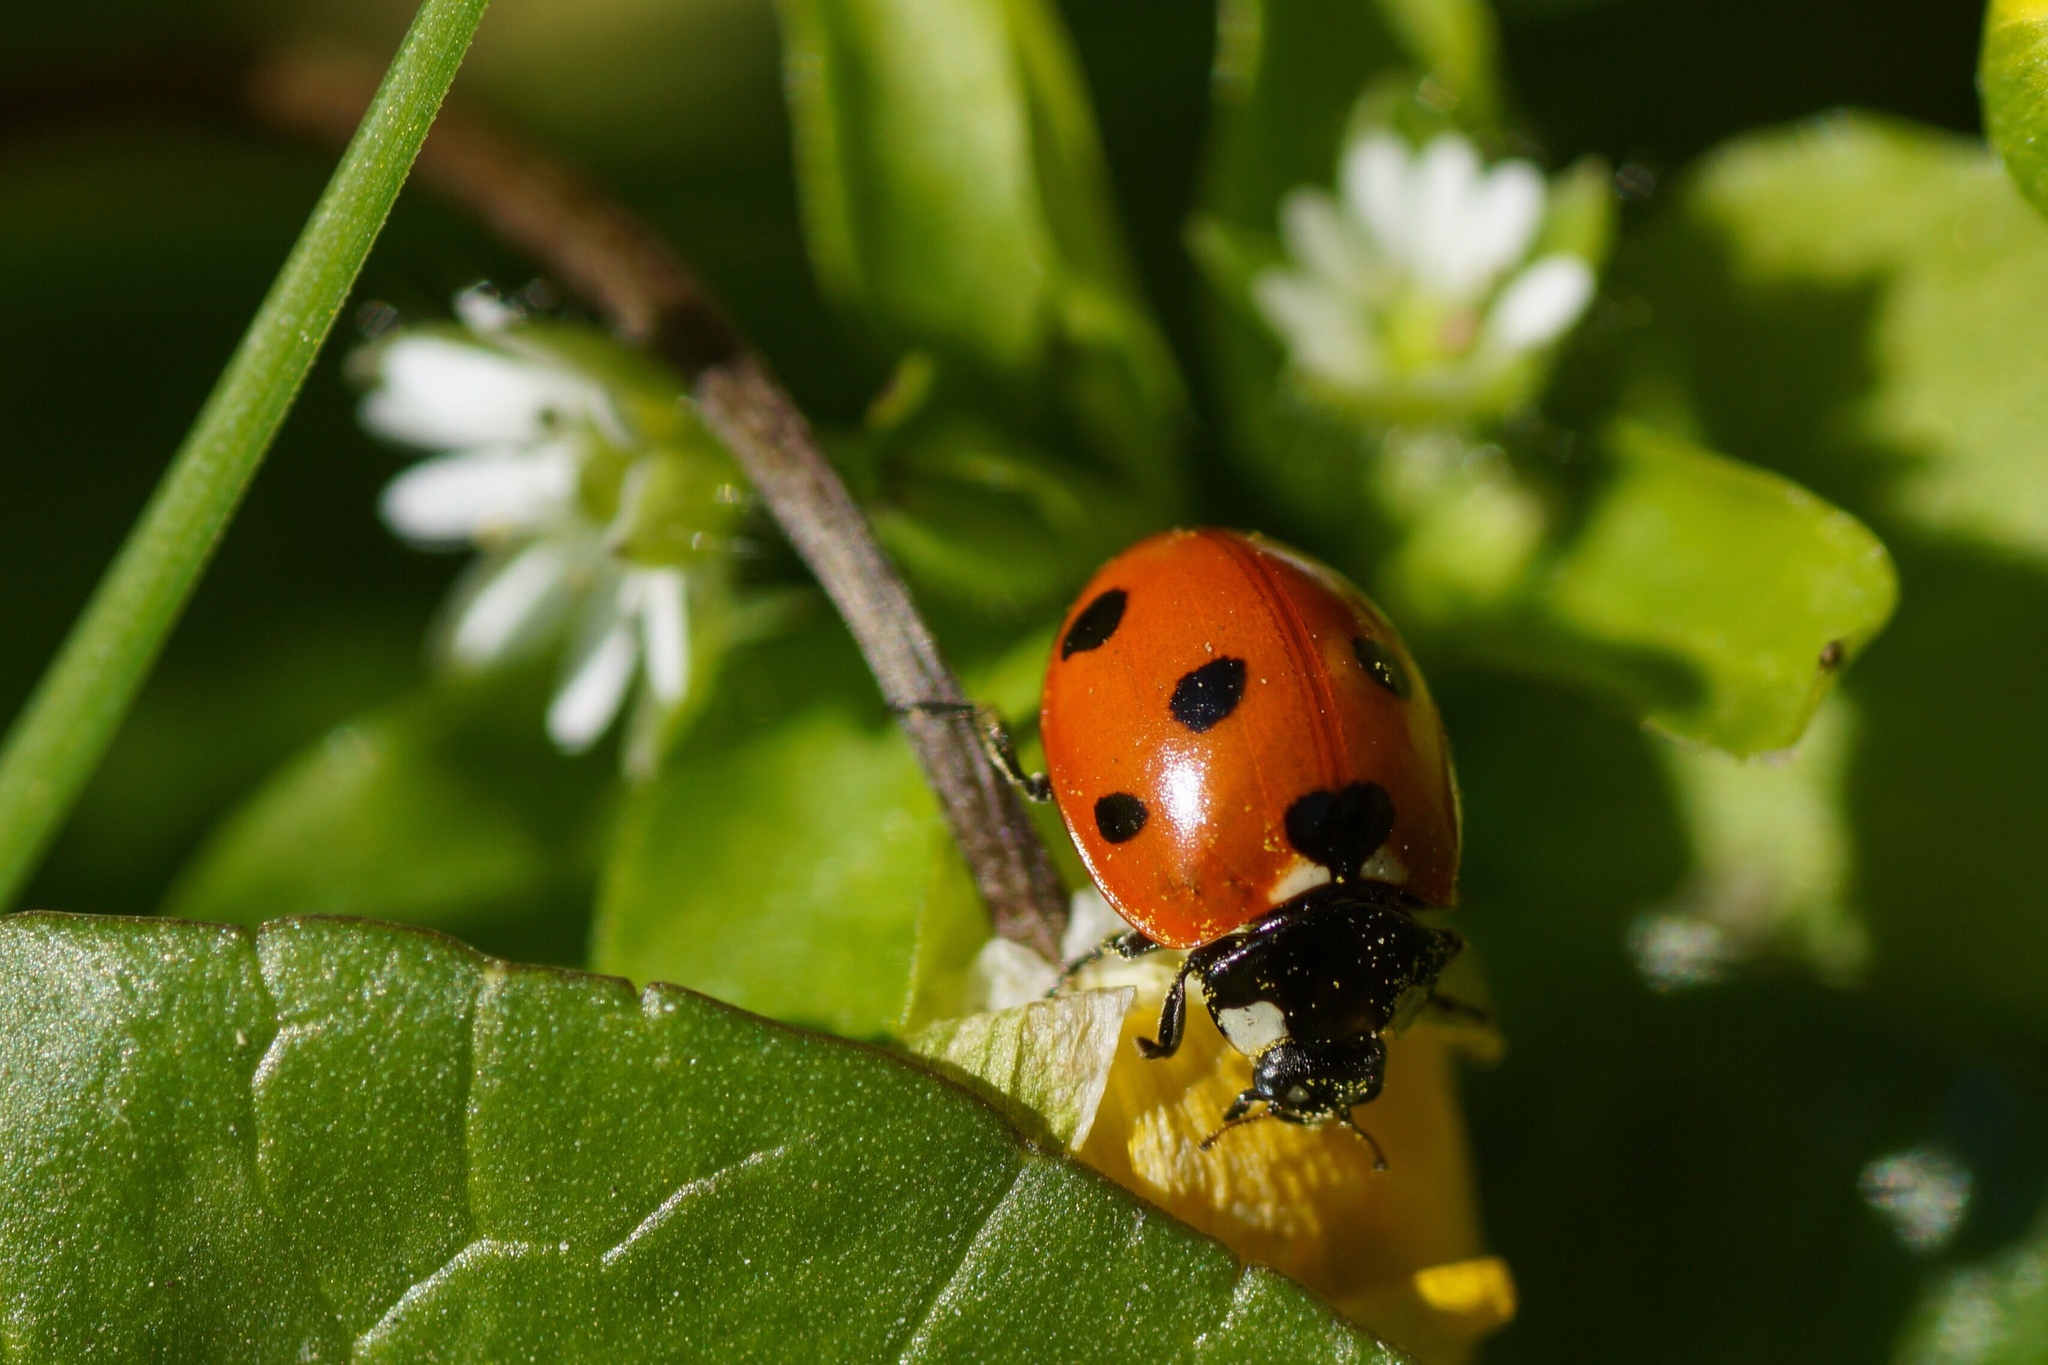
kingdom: Animalia
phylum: Arthropoda
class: Insecta
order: Coleoptera
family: Coccinellidae
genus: Coccinella
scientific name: Coccinella septempunctata
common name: Sevenspotted lady beetle
